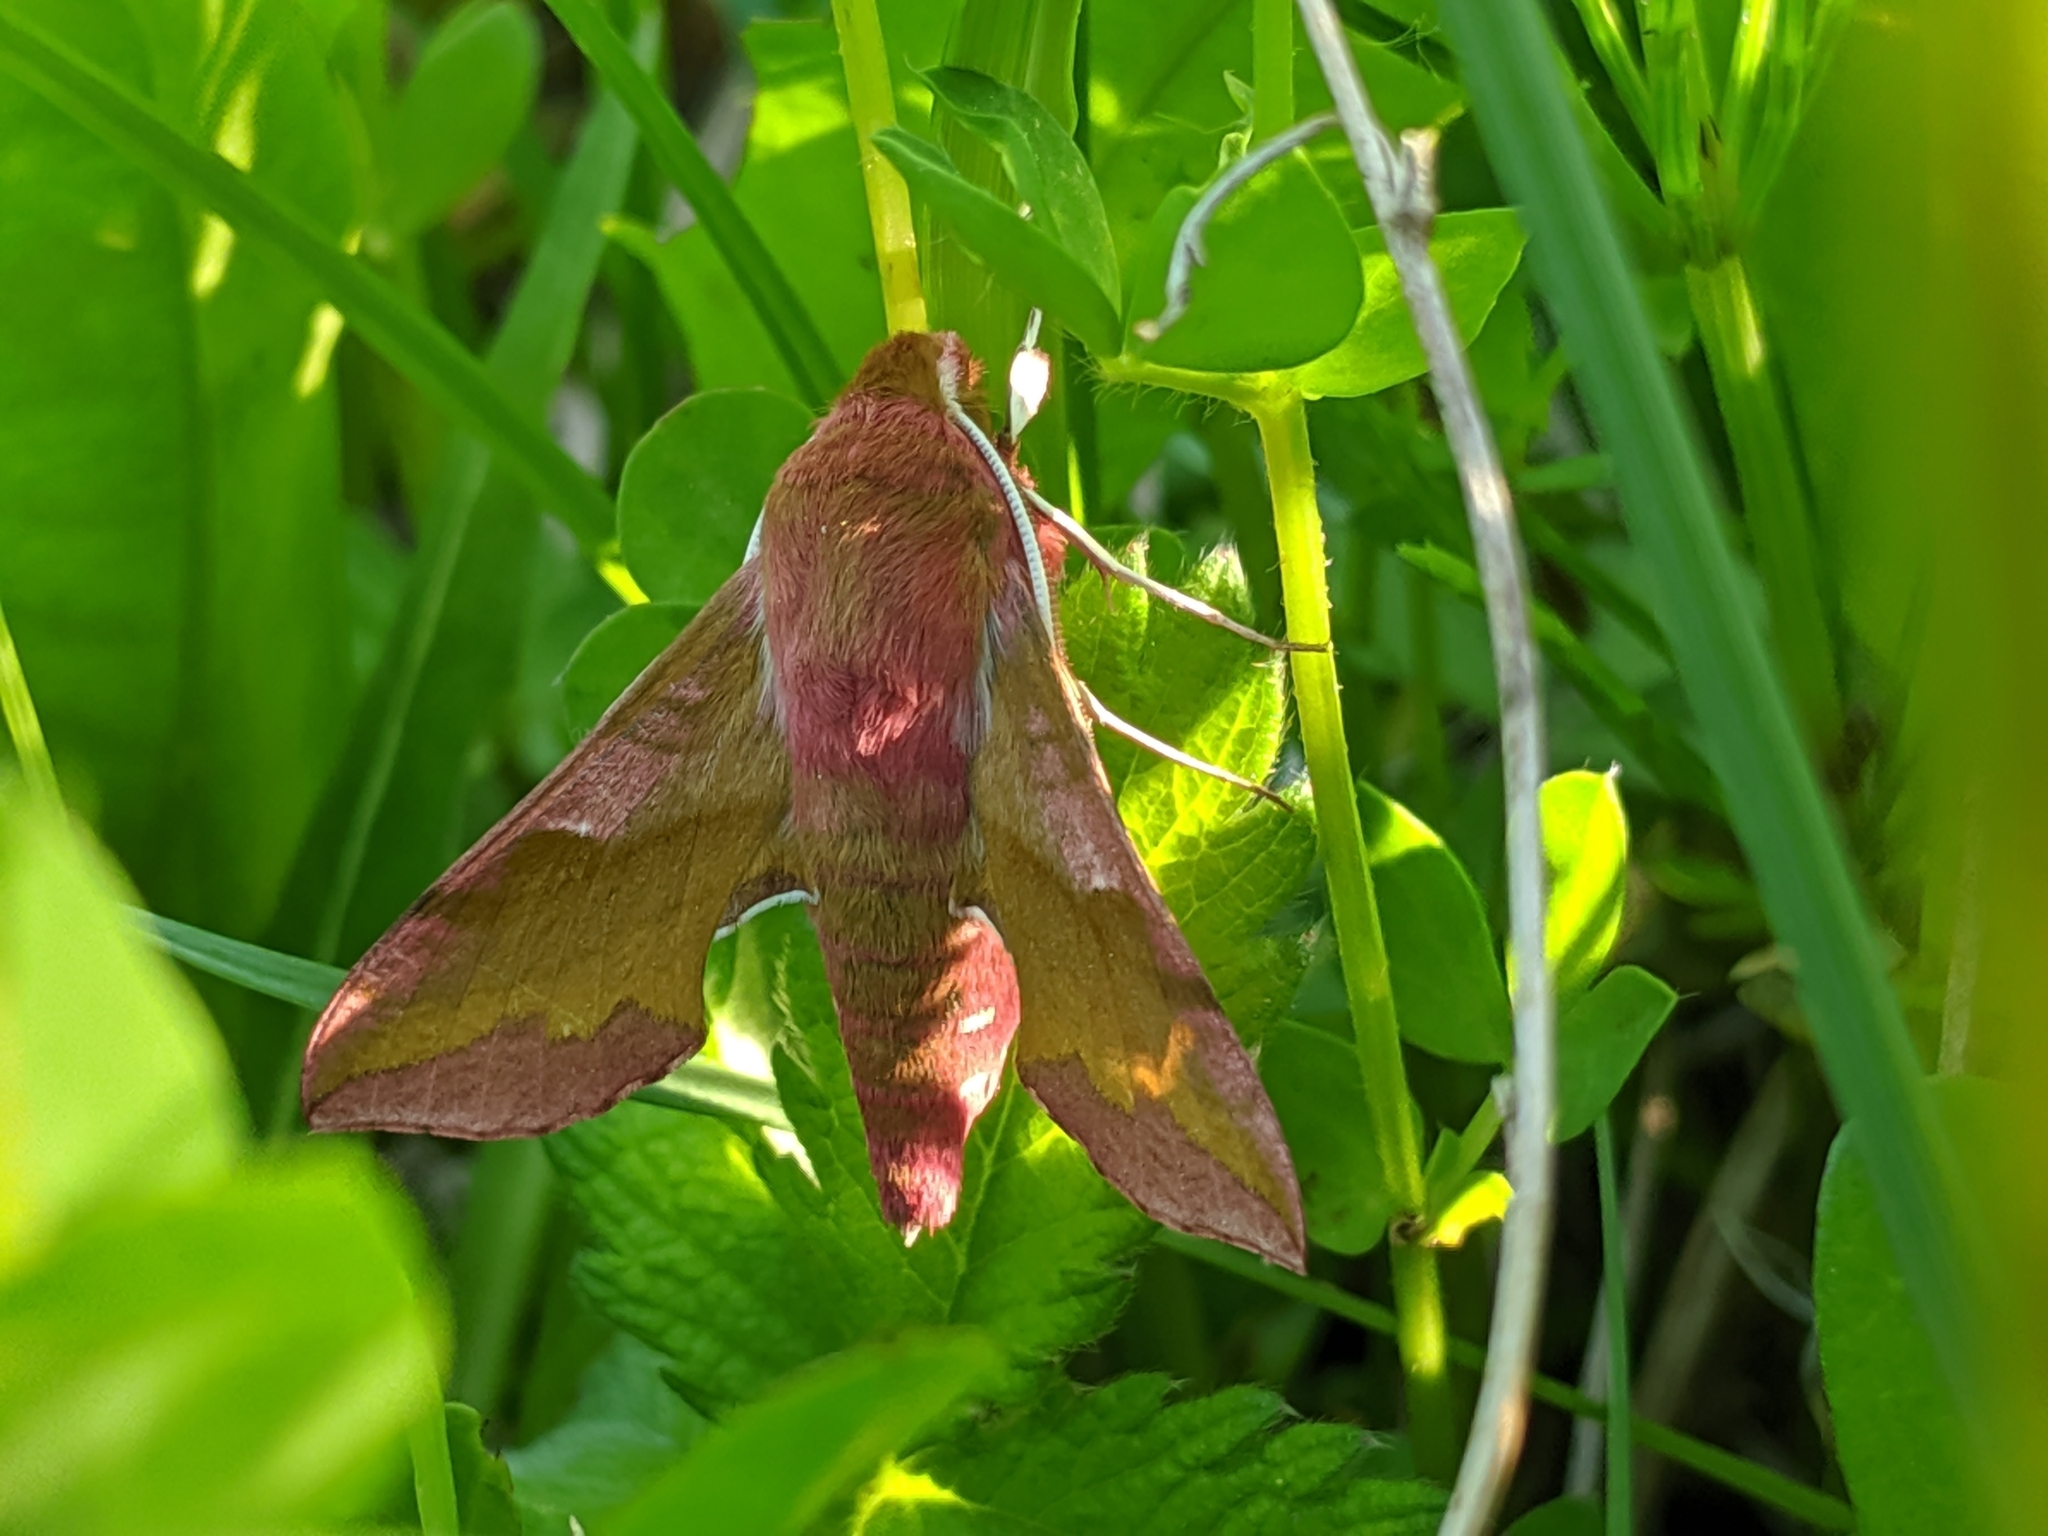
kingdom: Animalia
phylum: Arthropoda
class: Insecta
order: Lepidoptera
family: Sphingidae
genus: Deilephila
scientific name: Deilephila porcellus
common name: Small elephant hawk-moth
